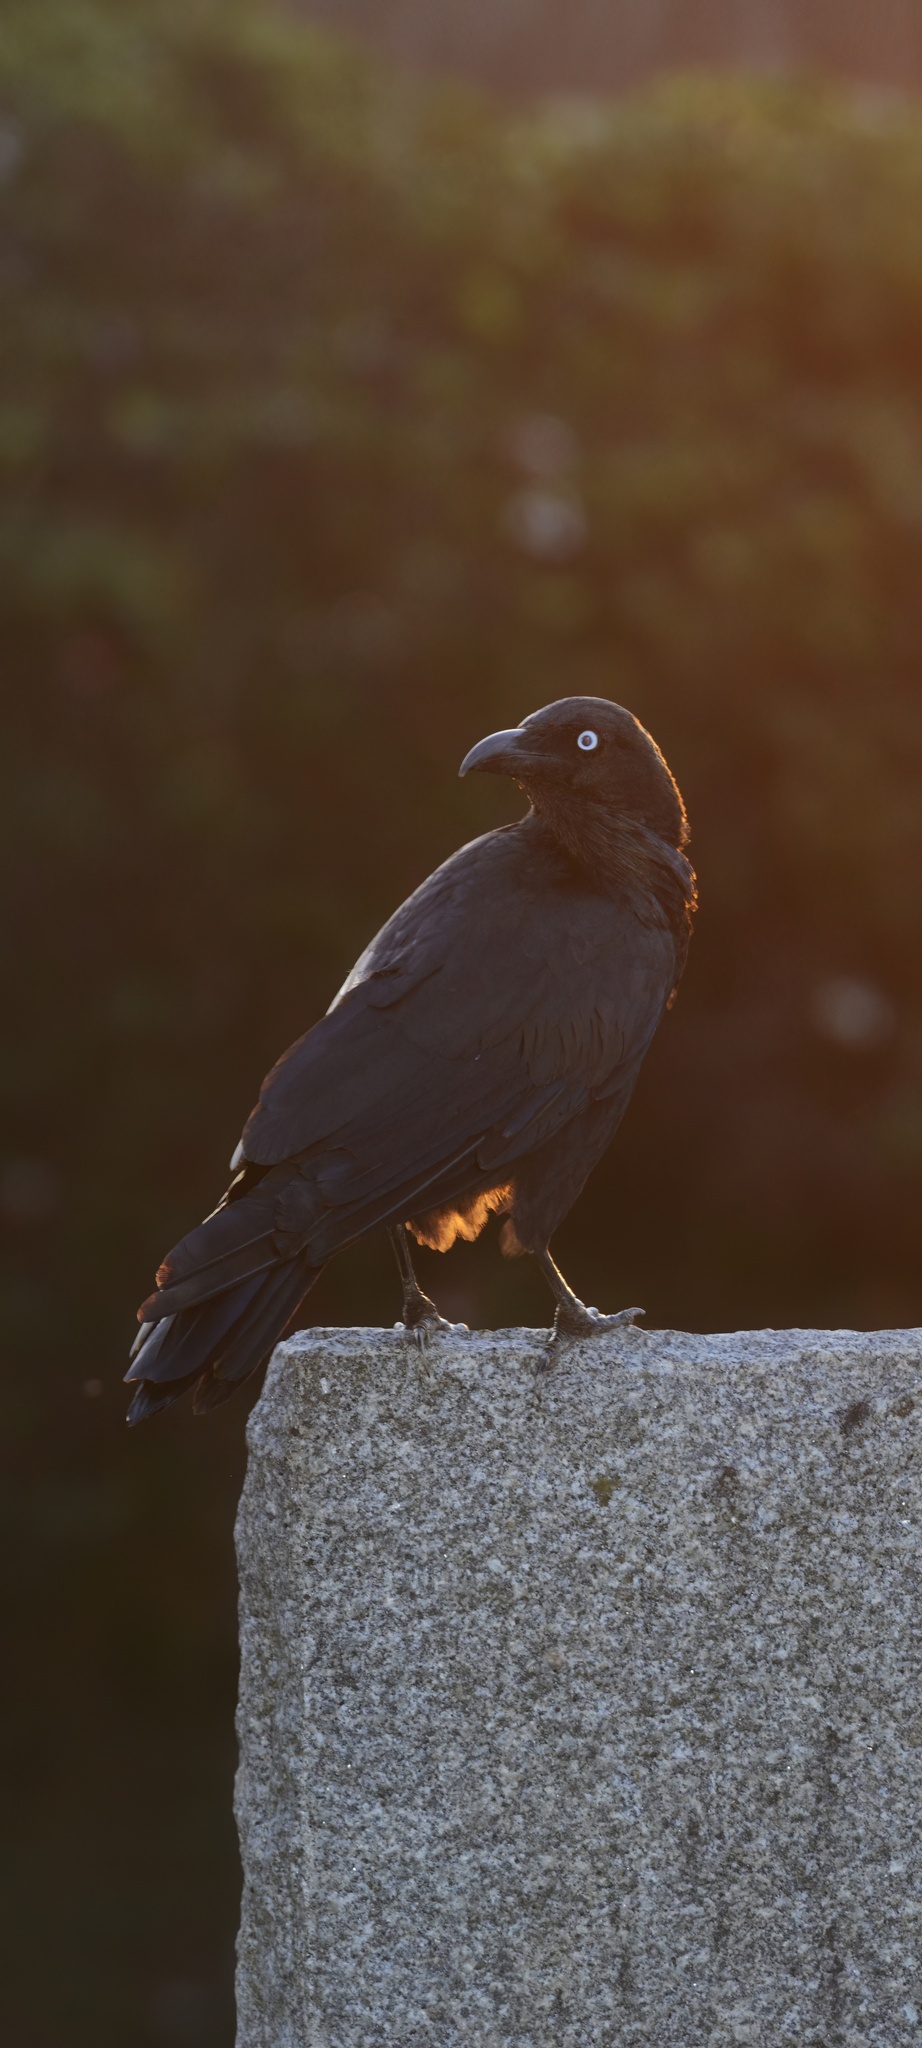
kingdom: Animalia
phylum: Chordata
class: Aves
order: Passeriformes
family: Corvidae
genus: Corvus
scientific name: Corvus coronoides
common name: Australian raven
